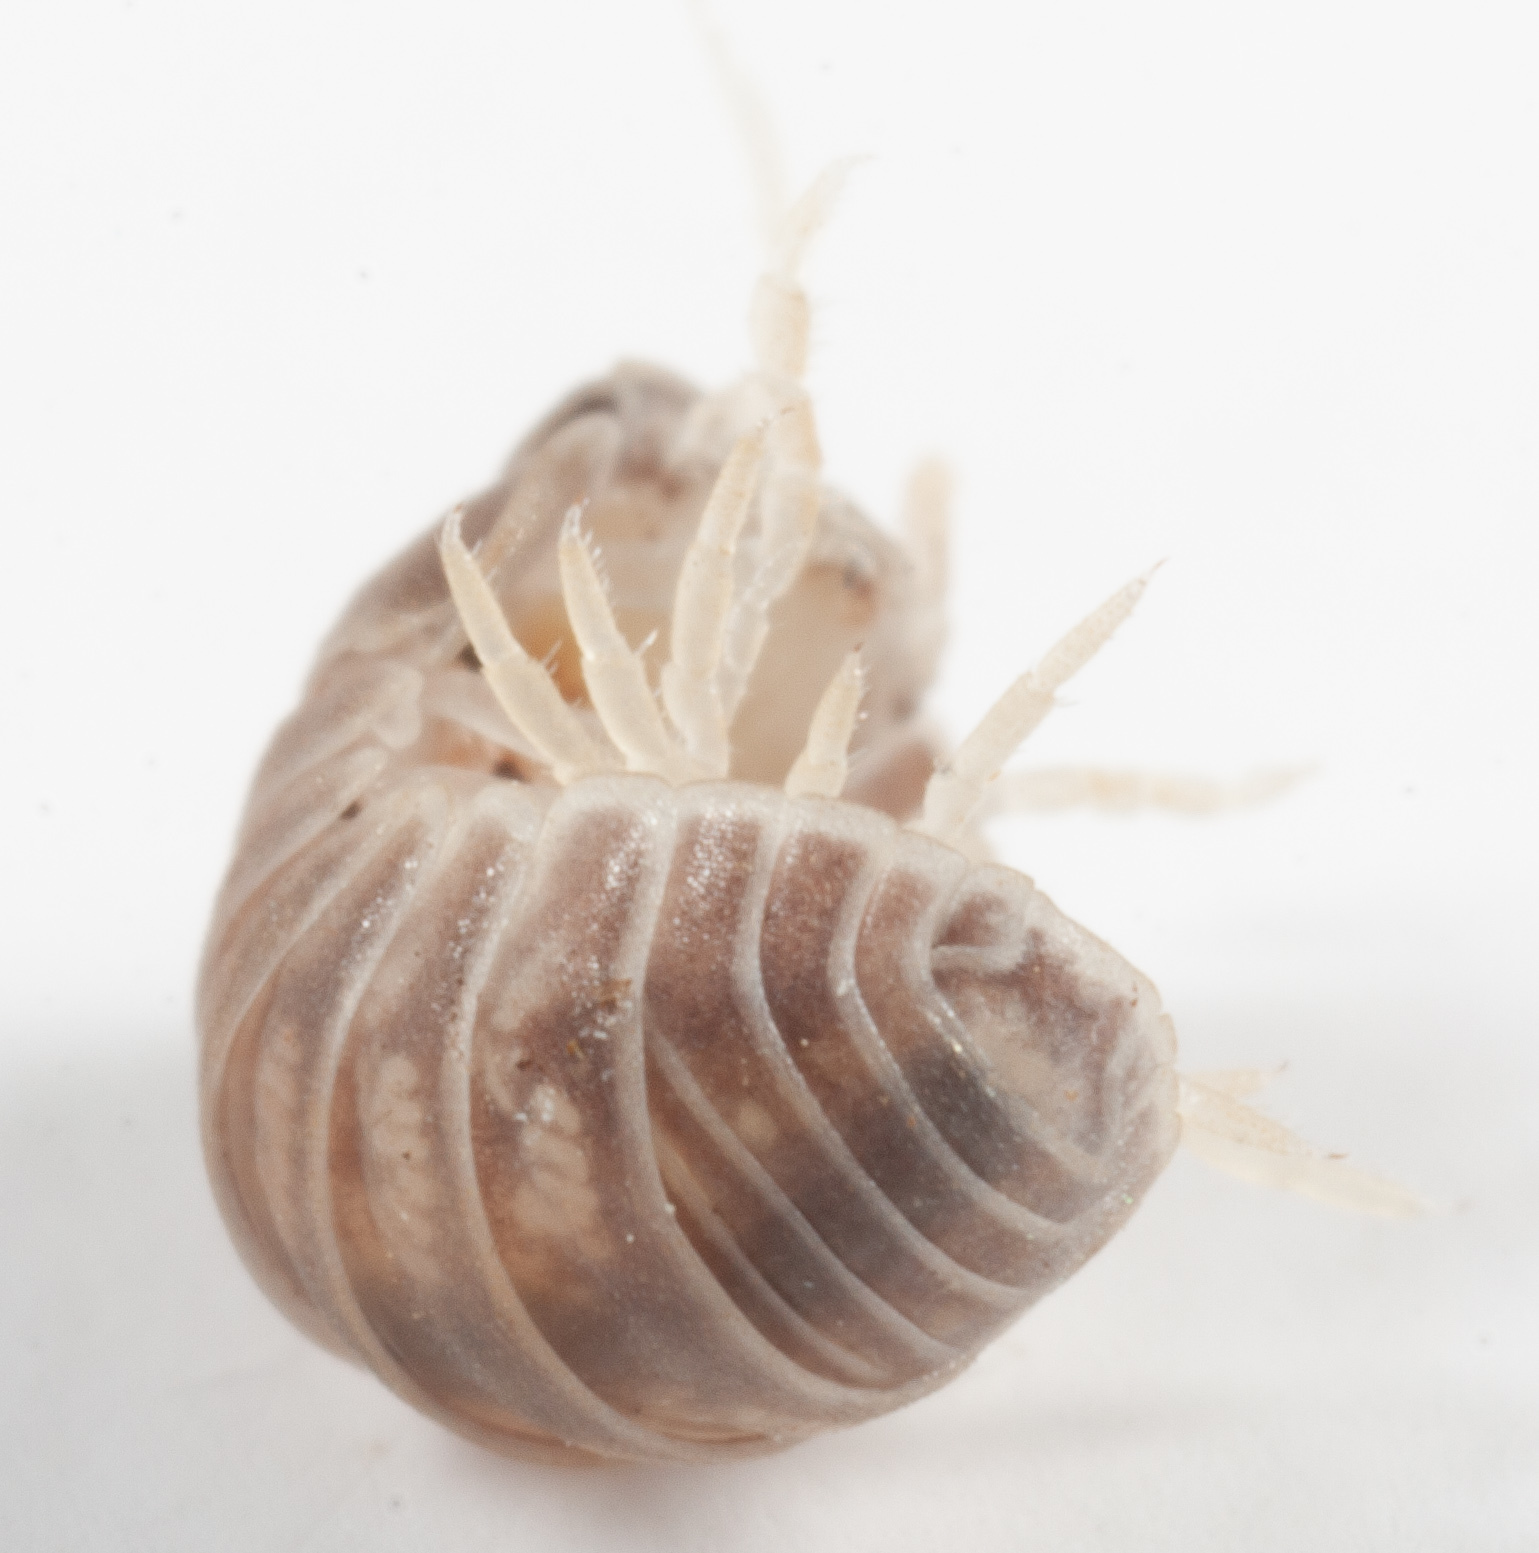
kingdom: Animalia
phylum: Arthropoda
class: Malacostraca
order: Isopoda
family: Armadillidae
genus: Venezillo
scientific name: Venezillo microphthalmus
